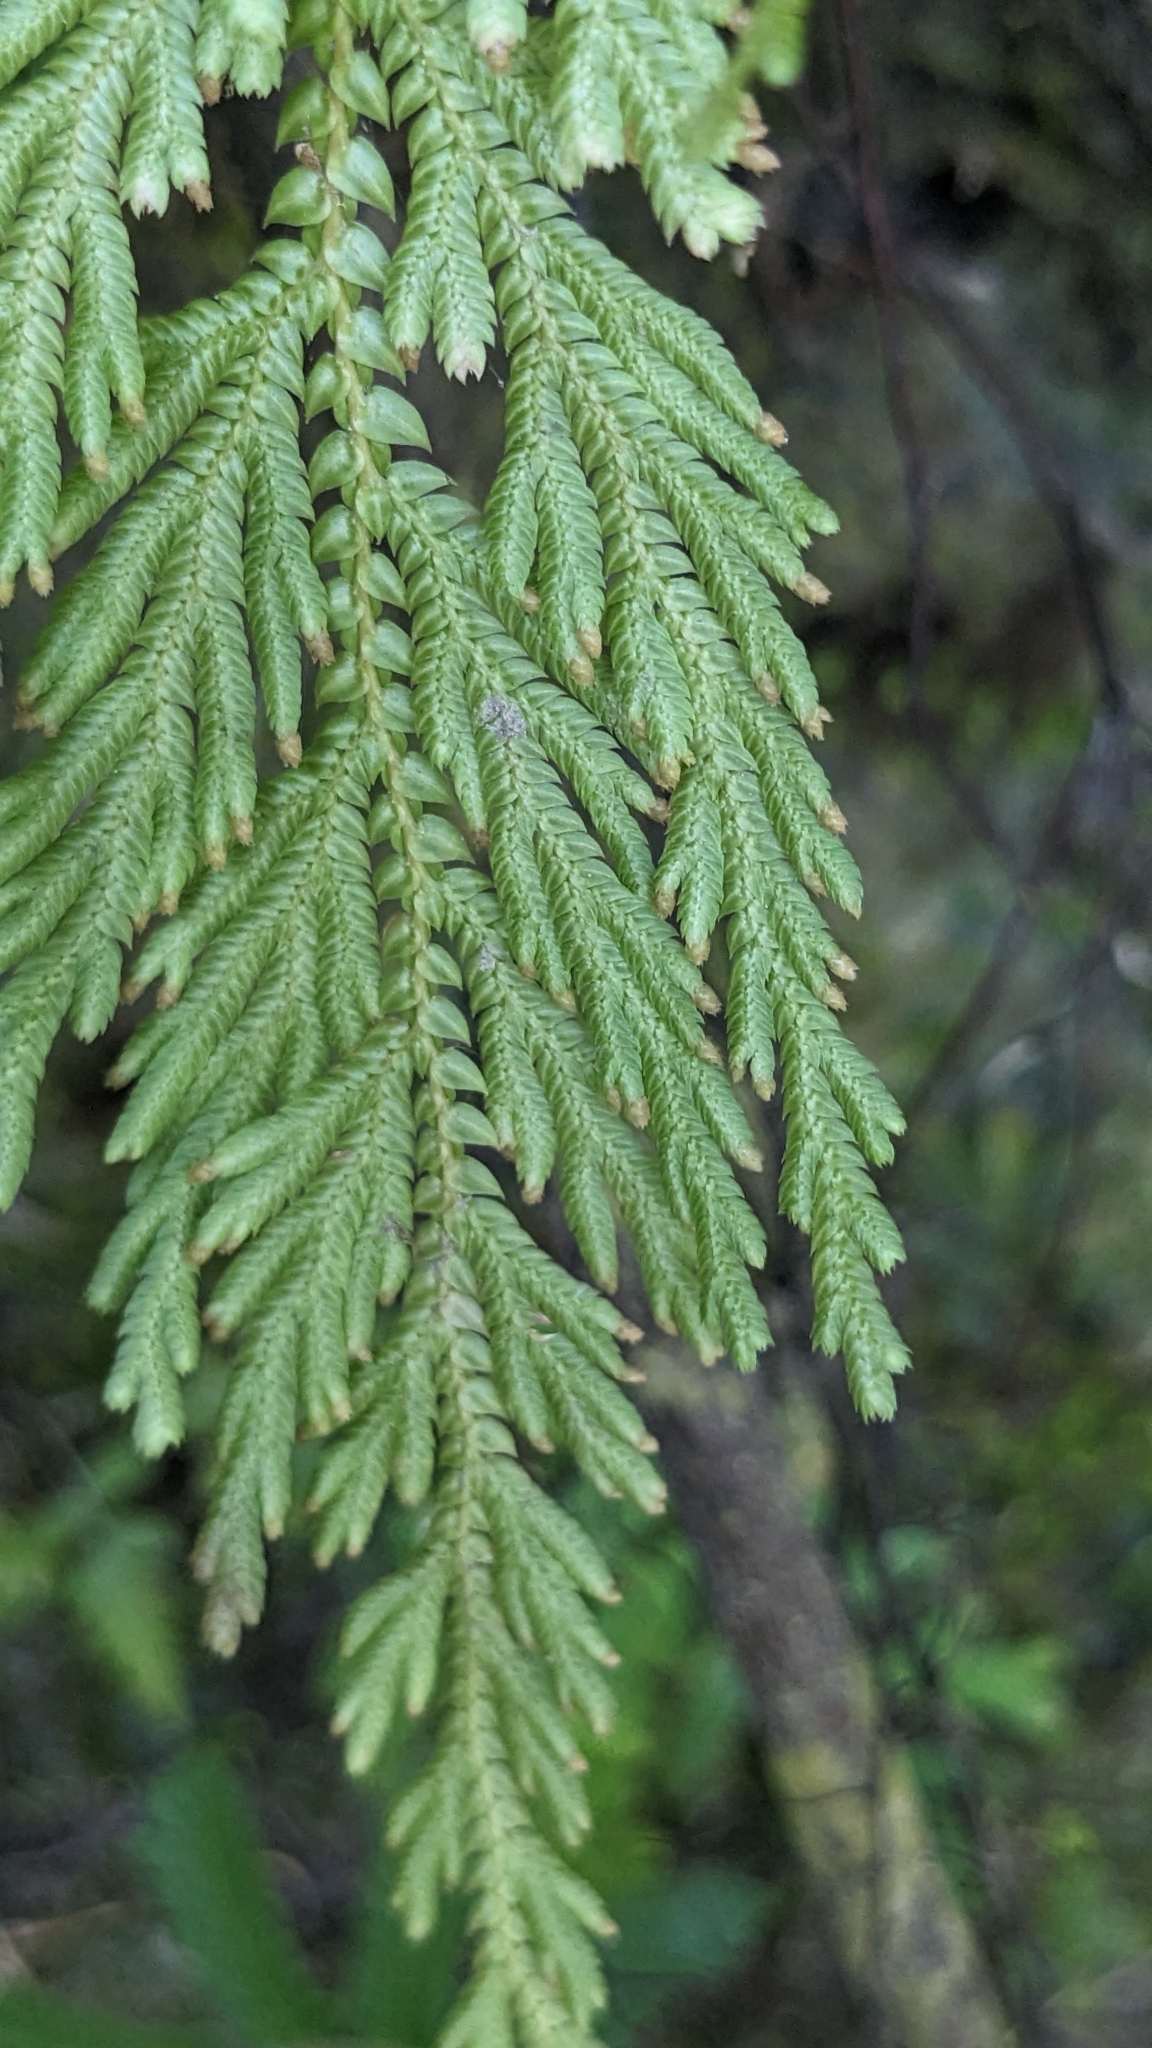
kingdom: Plantae
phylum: Tracheophyta
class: Lycopodiopsida
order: Selaginellales
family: Selaginellaceae
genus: Selaginella
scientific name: Selaginella moellendorffii
